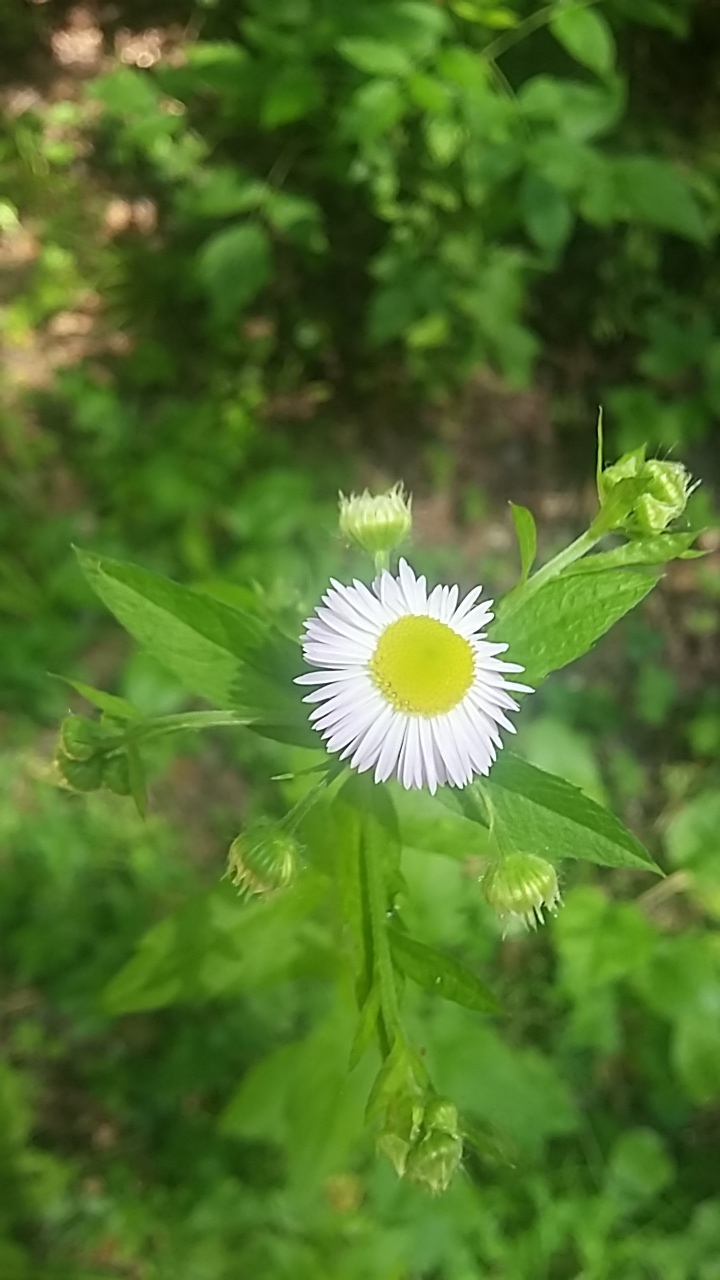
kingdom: Plantae
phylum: Tracheophyta
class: Magnoliopsida
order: Asterales
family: Asteraceae
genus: Erigeron
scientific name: Erigeron annuus
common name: Tall fleabane
